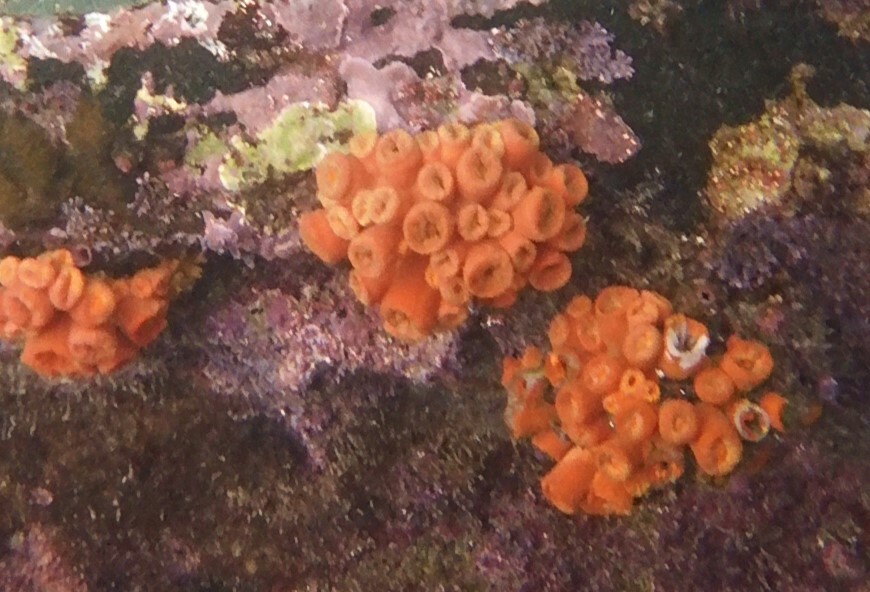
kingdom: Animalia
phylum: Cnidaria
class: Anthozoa
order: Scleractinia
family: Dendrophylliidae
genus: Tubastraea
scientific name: Tubastraea coccinea
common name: Orange cup coral
